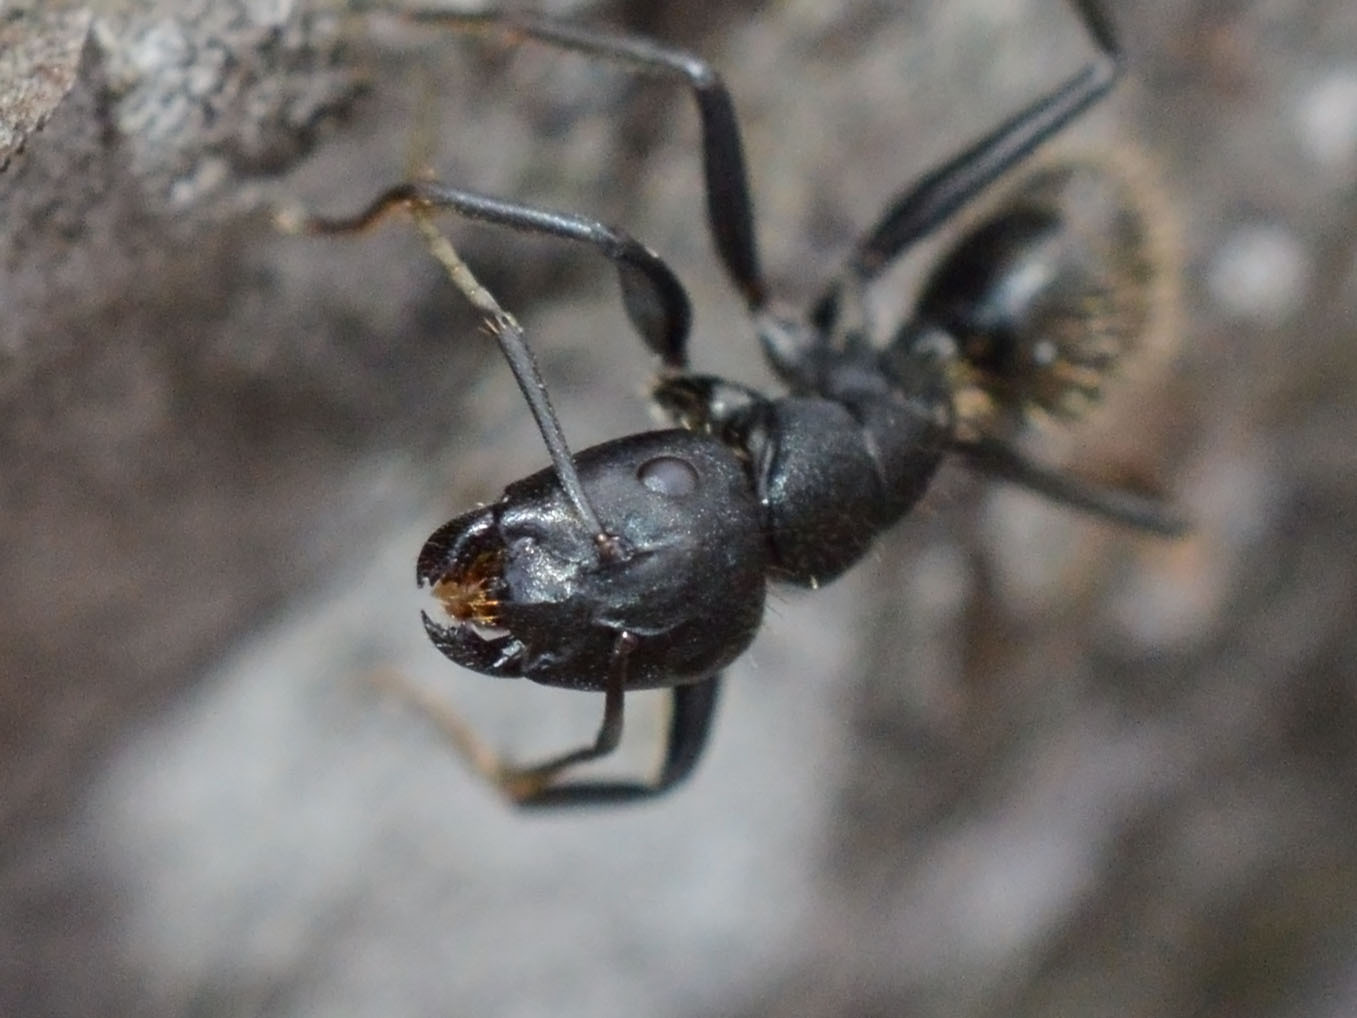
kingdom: Animalia
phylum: Arthropoda
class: Insecta
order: Hymenoptera
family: Formicidae
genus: Camponotus
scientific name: Camponotus vagus
